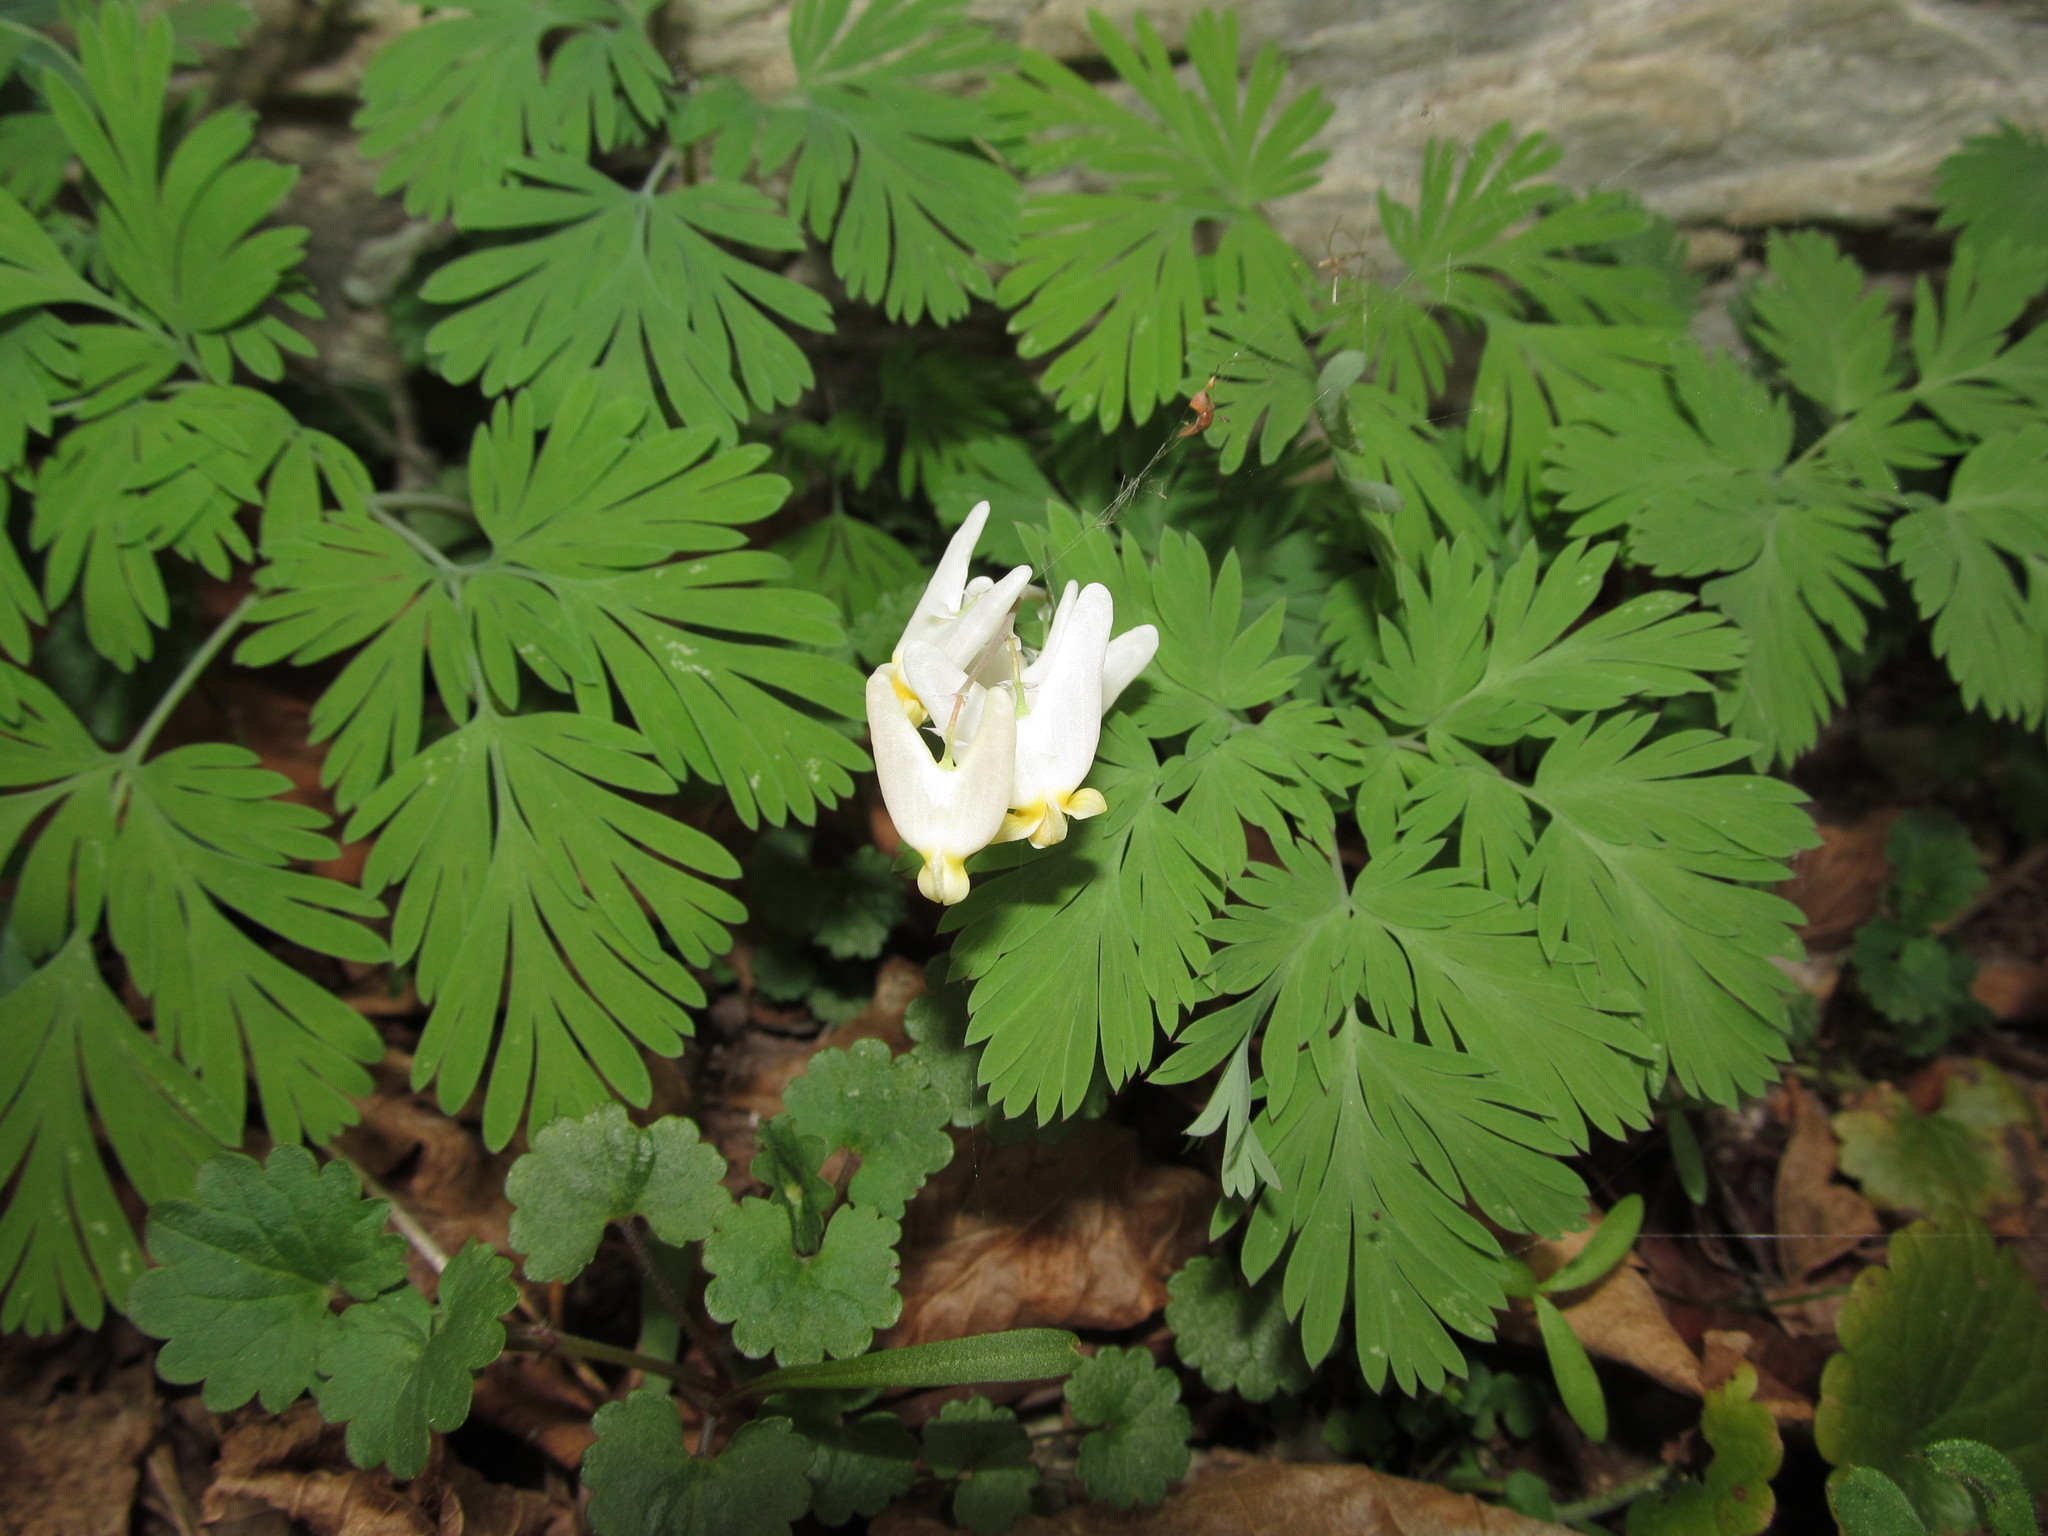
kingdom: Plantae
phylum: Tracheophyta
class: Magnoliopsida
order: Ranunculales
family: Papaveraceae
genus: Dicentra
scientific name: Dicentra cucullaria
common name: Dutchman's breeches
